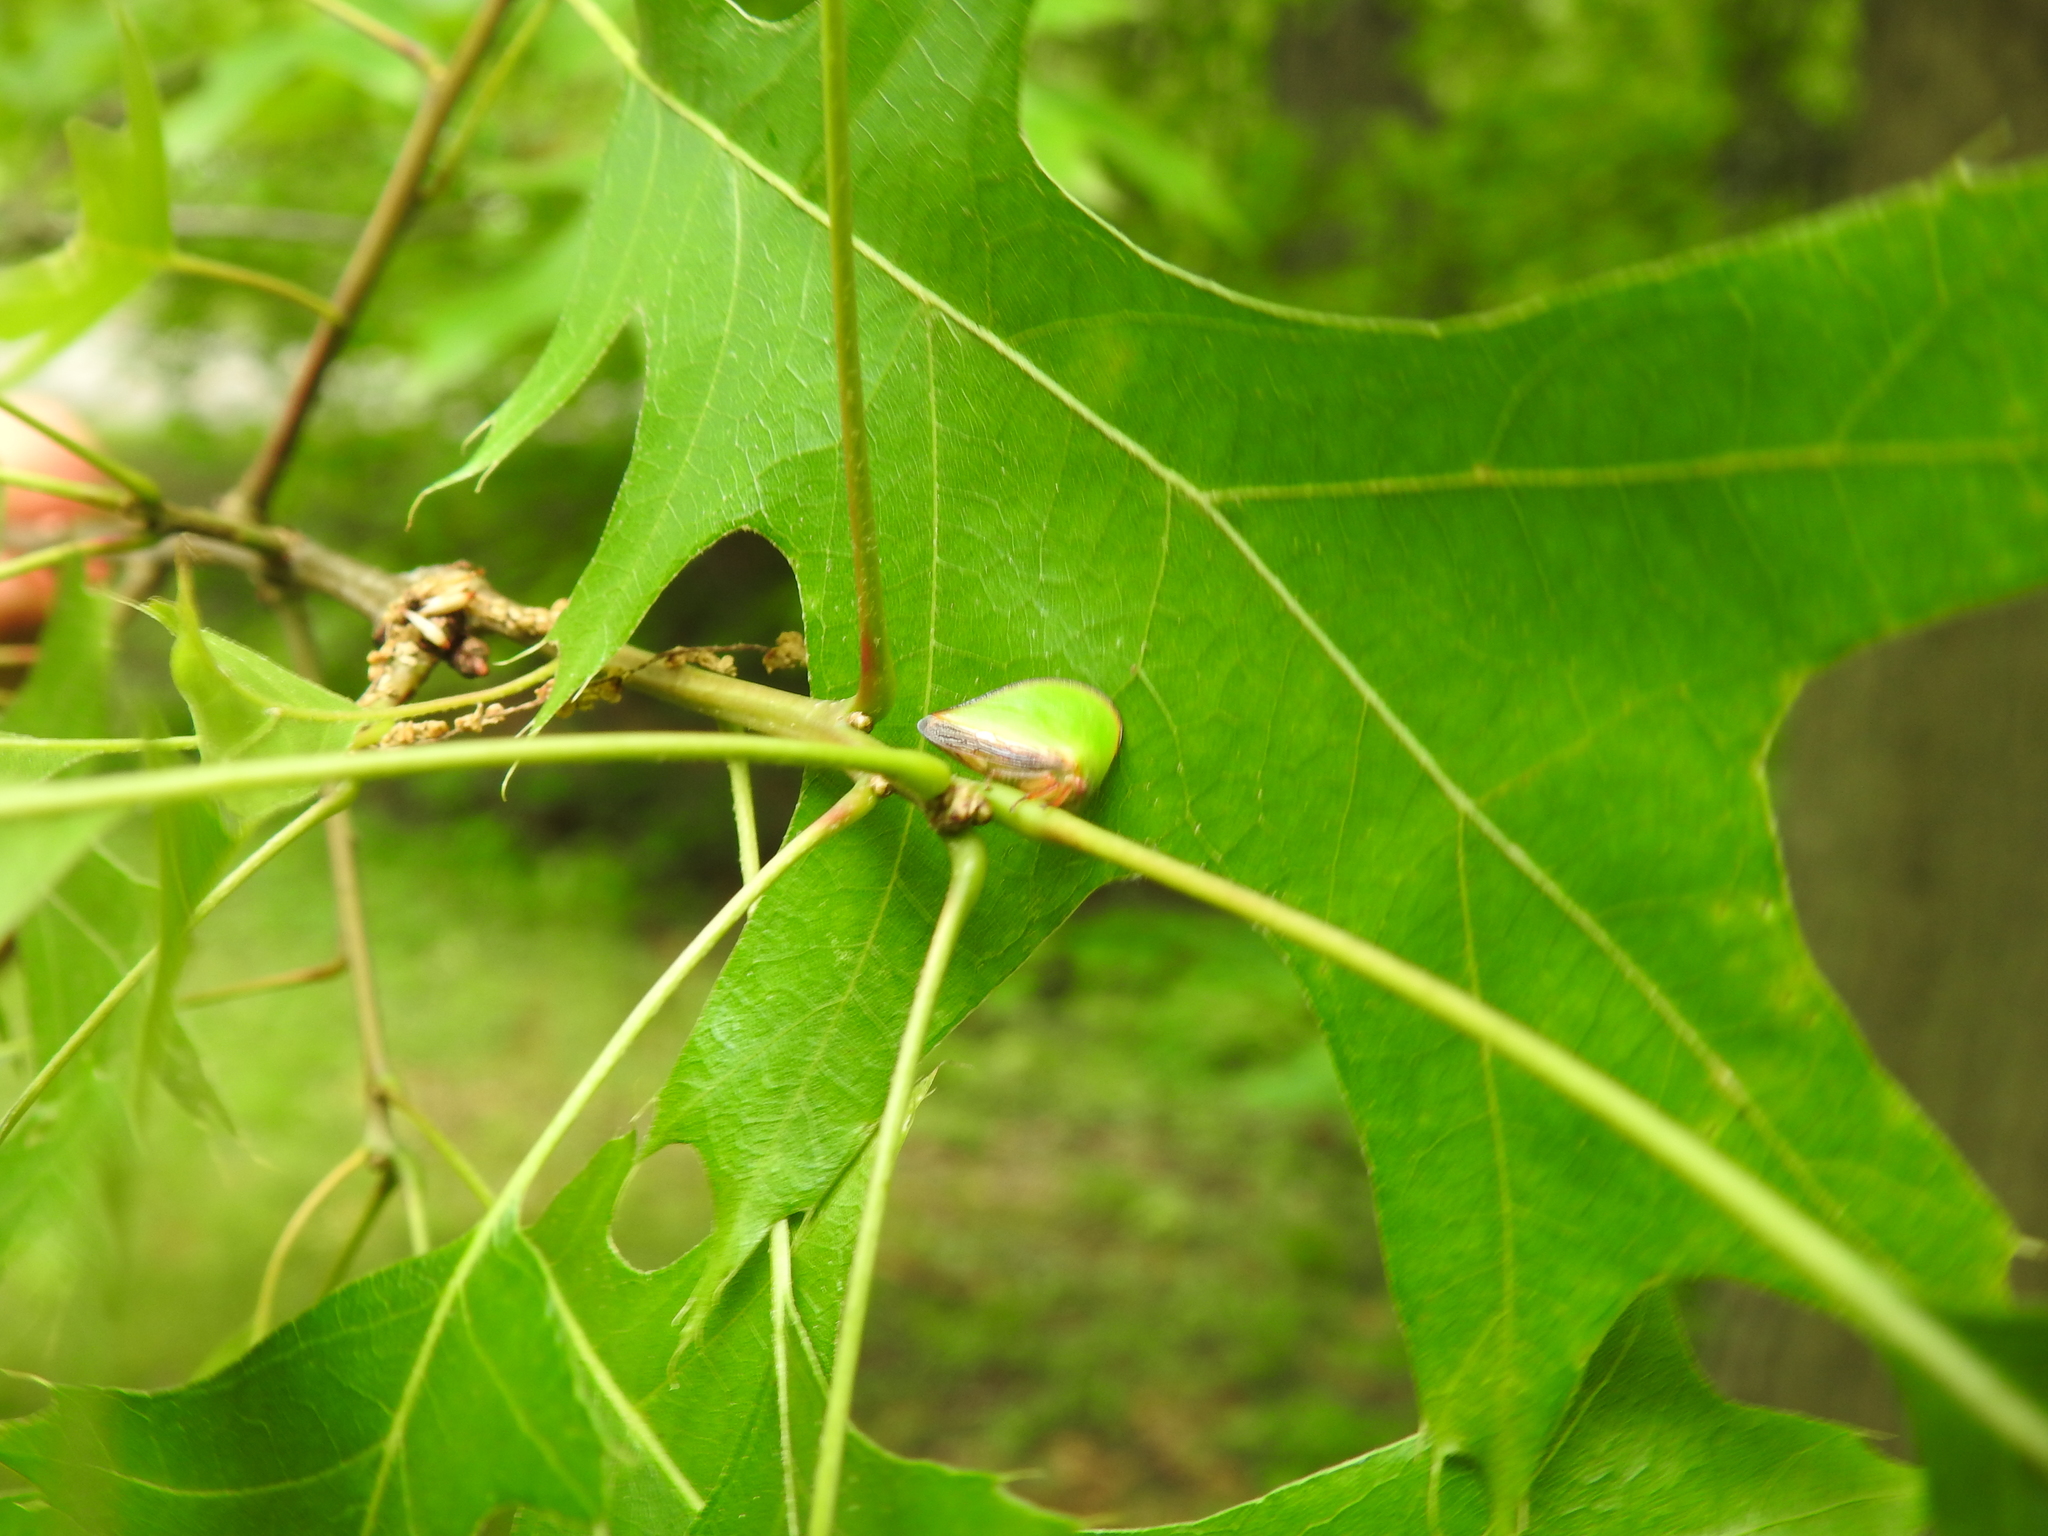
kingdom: Animalia
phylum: Arthropoda
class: Insecta
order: Hemiptera
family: Membracidae
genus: Archasia
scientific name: Archasia belfragei
